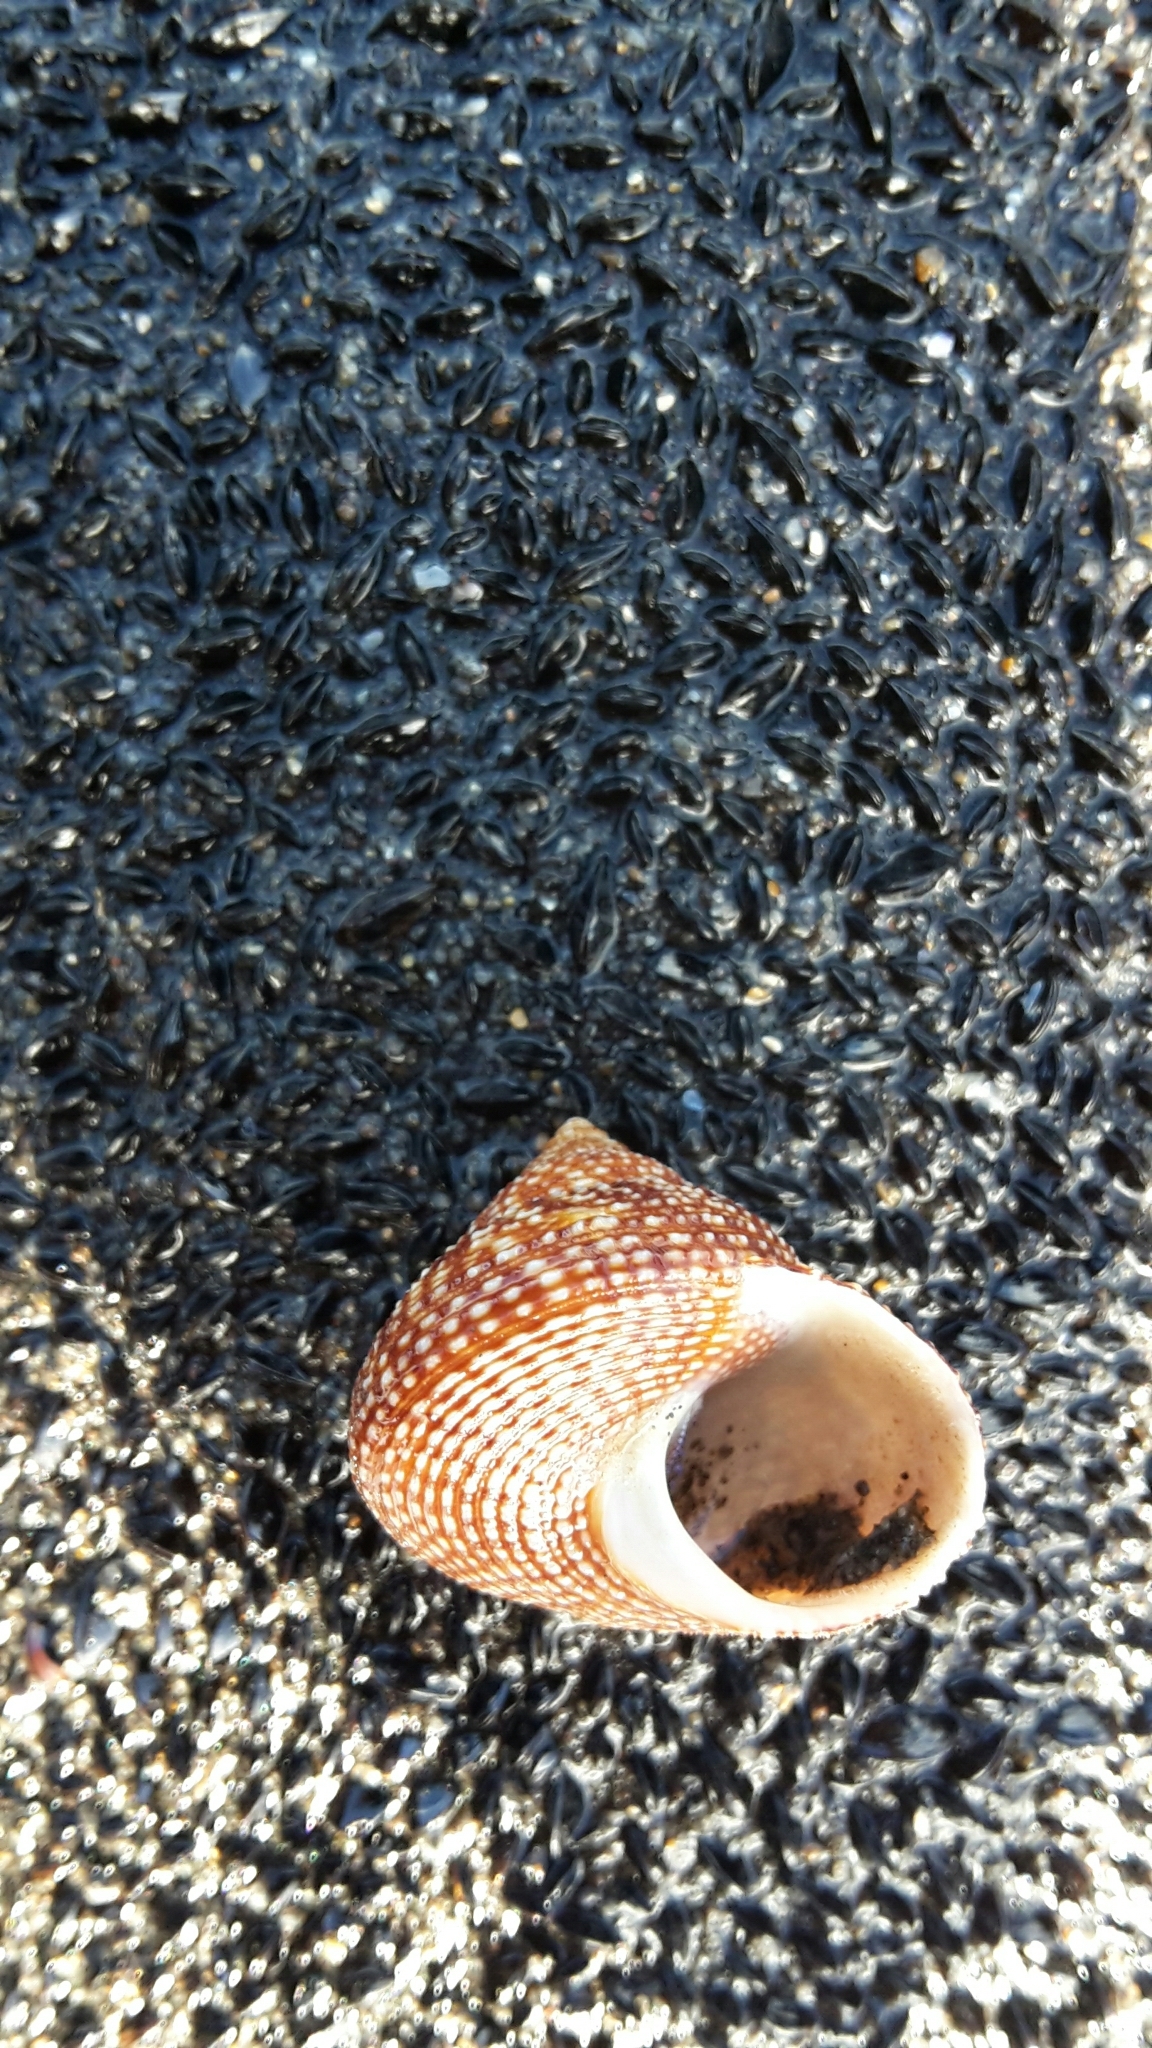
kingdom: Animalia
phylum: Mollusca
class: Gastropoda
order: Trochida
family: Calliostomatidae
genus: Maurea
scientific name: Maurea punctulata
